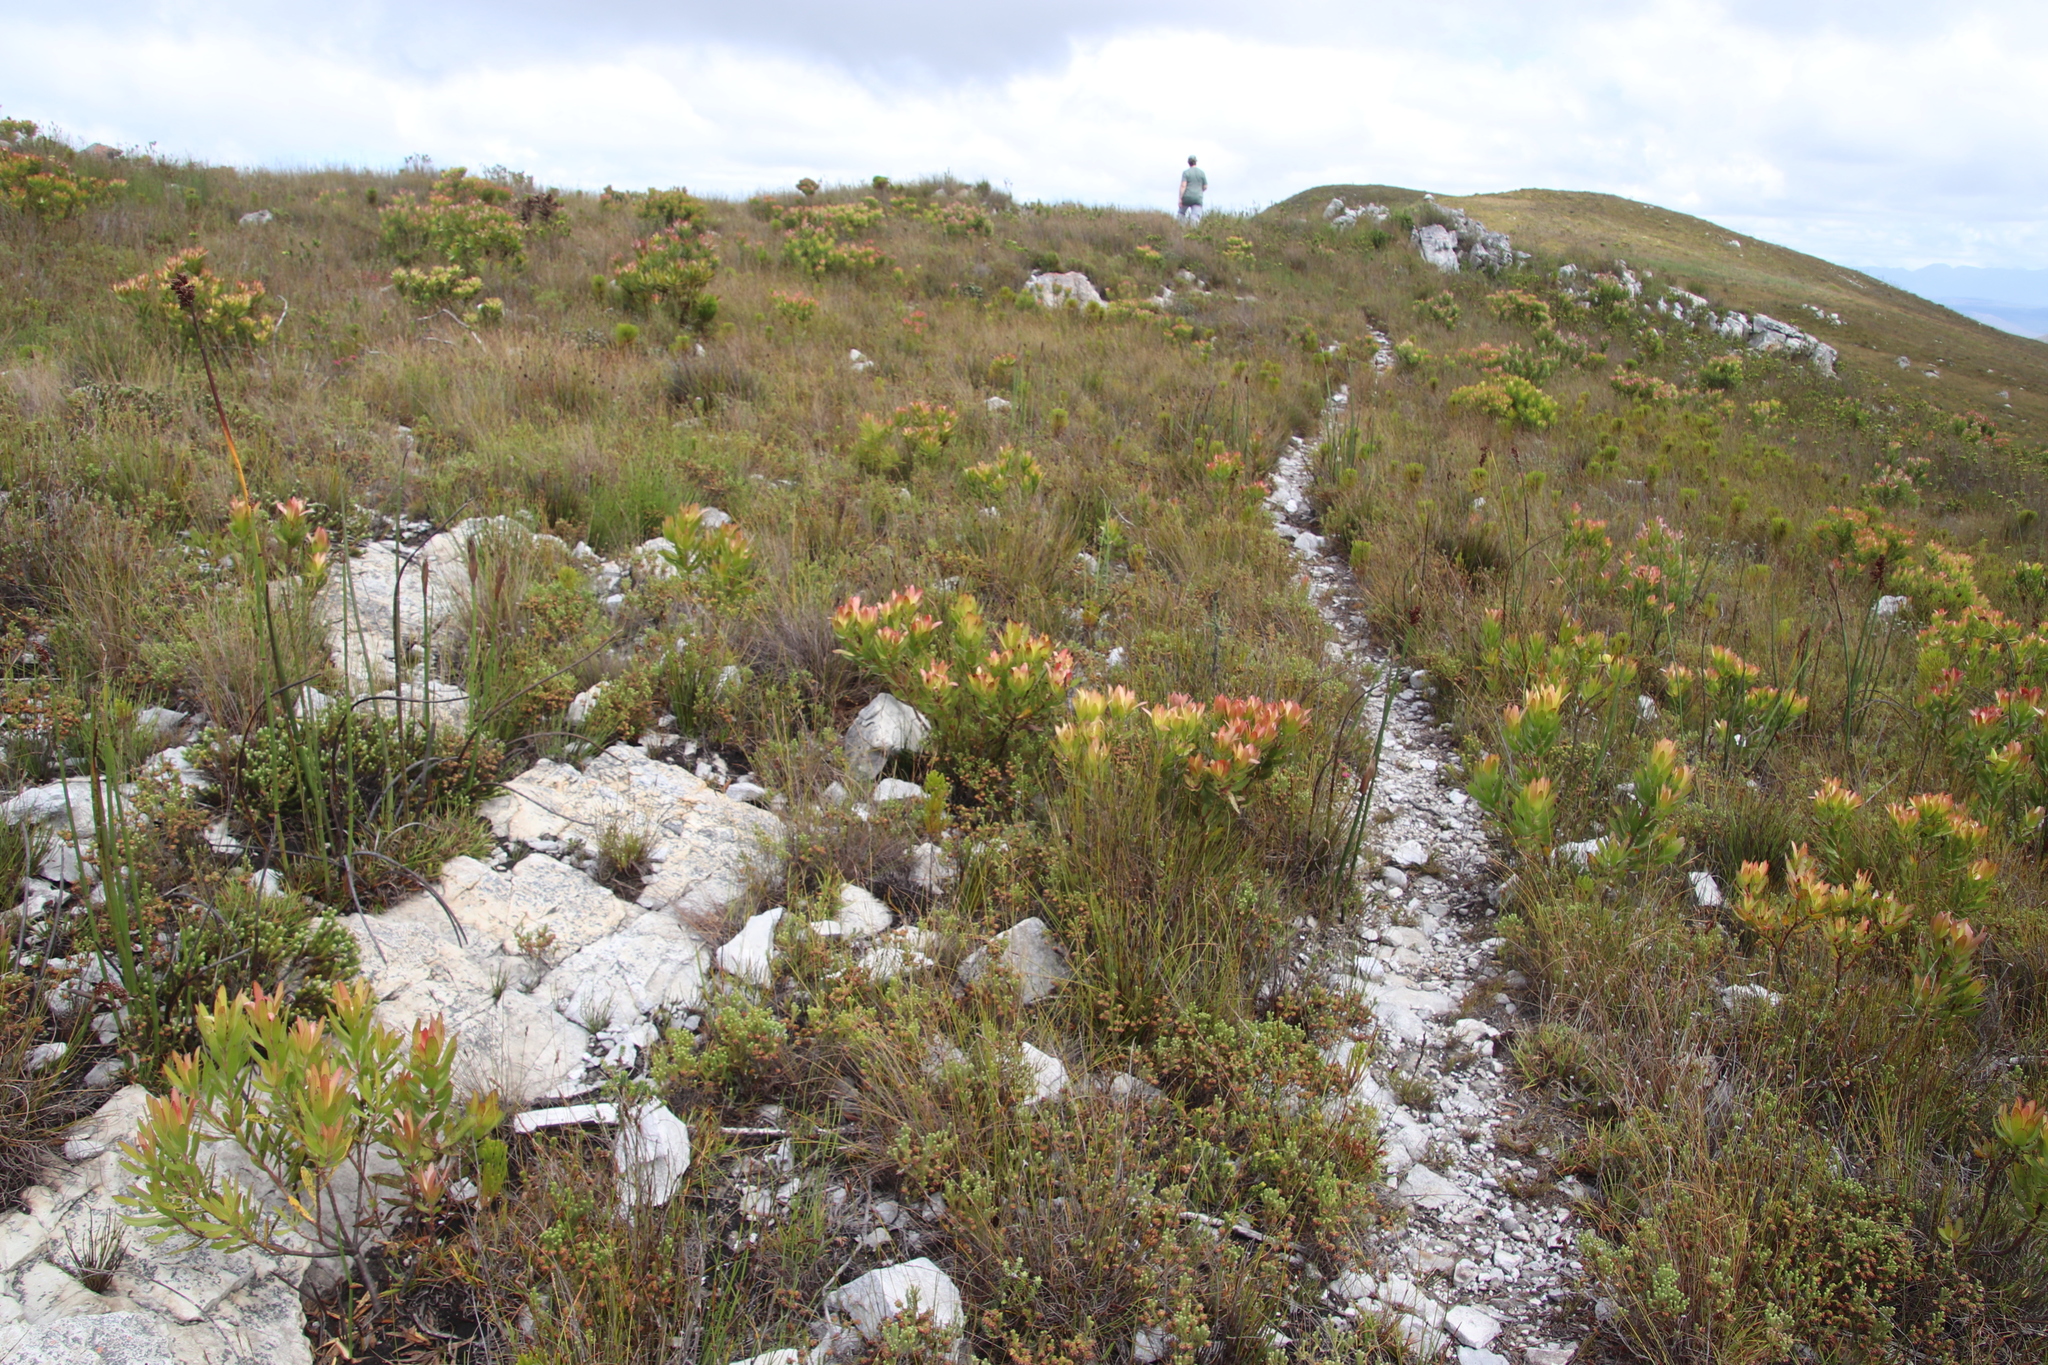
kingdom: Plantae
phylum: Tracheophyta
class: Magnoliopsida
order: Proteales
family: Proteaceae
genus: Leucadendron
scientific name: Leucadendron gandogeri
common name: Broad-leaf conebush
